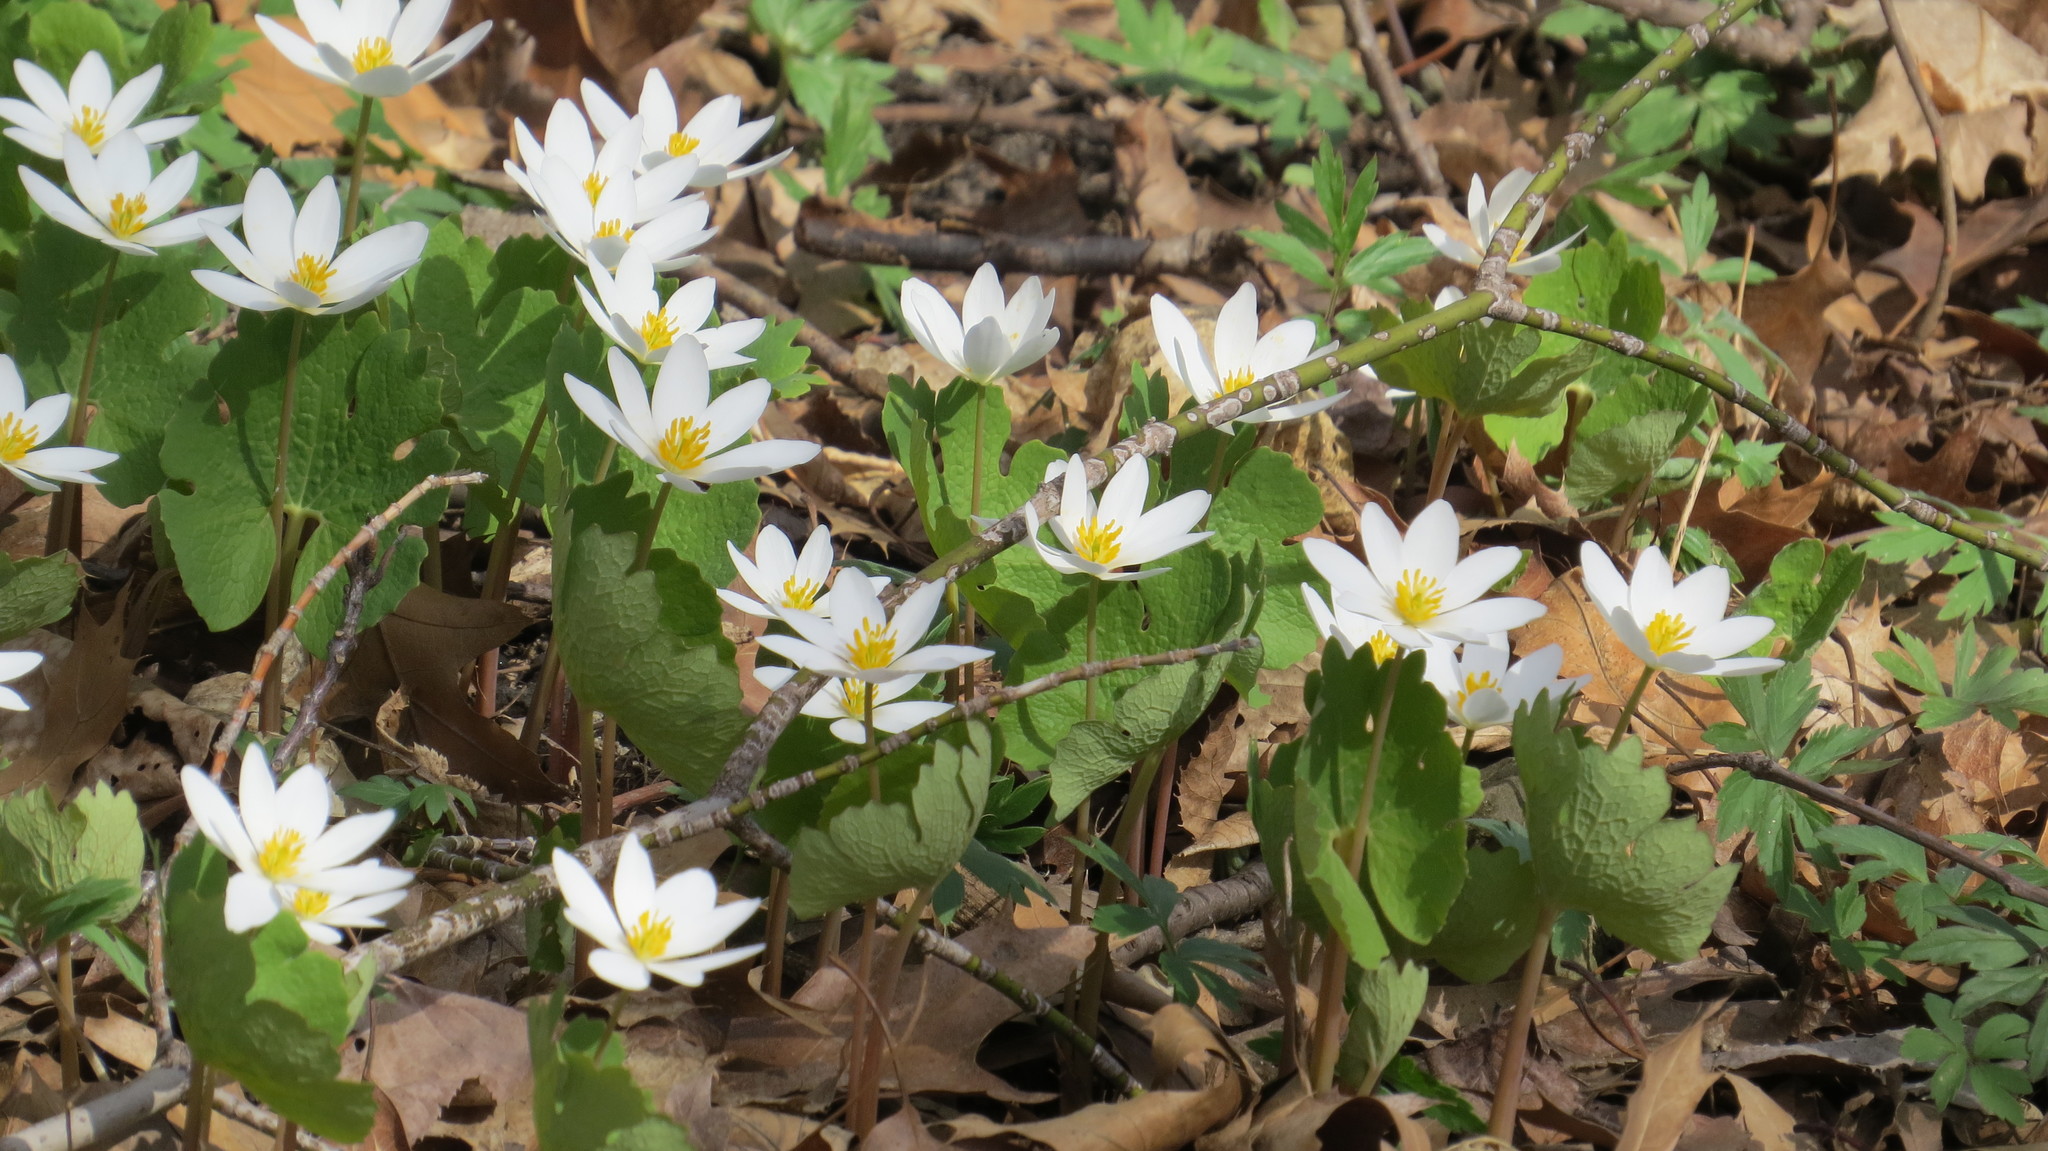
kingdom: Plantae
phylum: Tracheophyta
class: Magnoliopsida
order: Ranunculales
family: Papaveraceae
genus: Sanguinaria
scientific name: Sanguinaria canadensis
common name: Bloodroot
